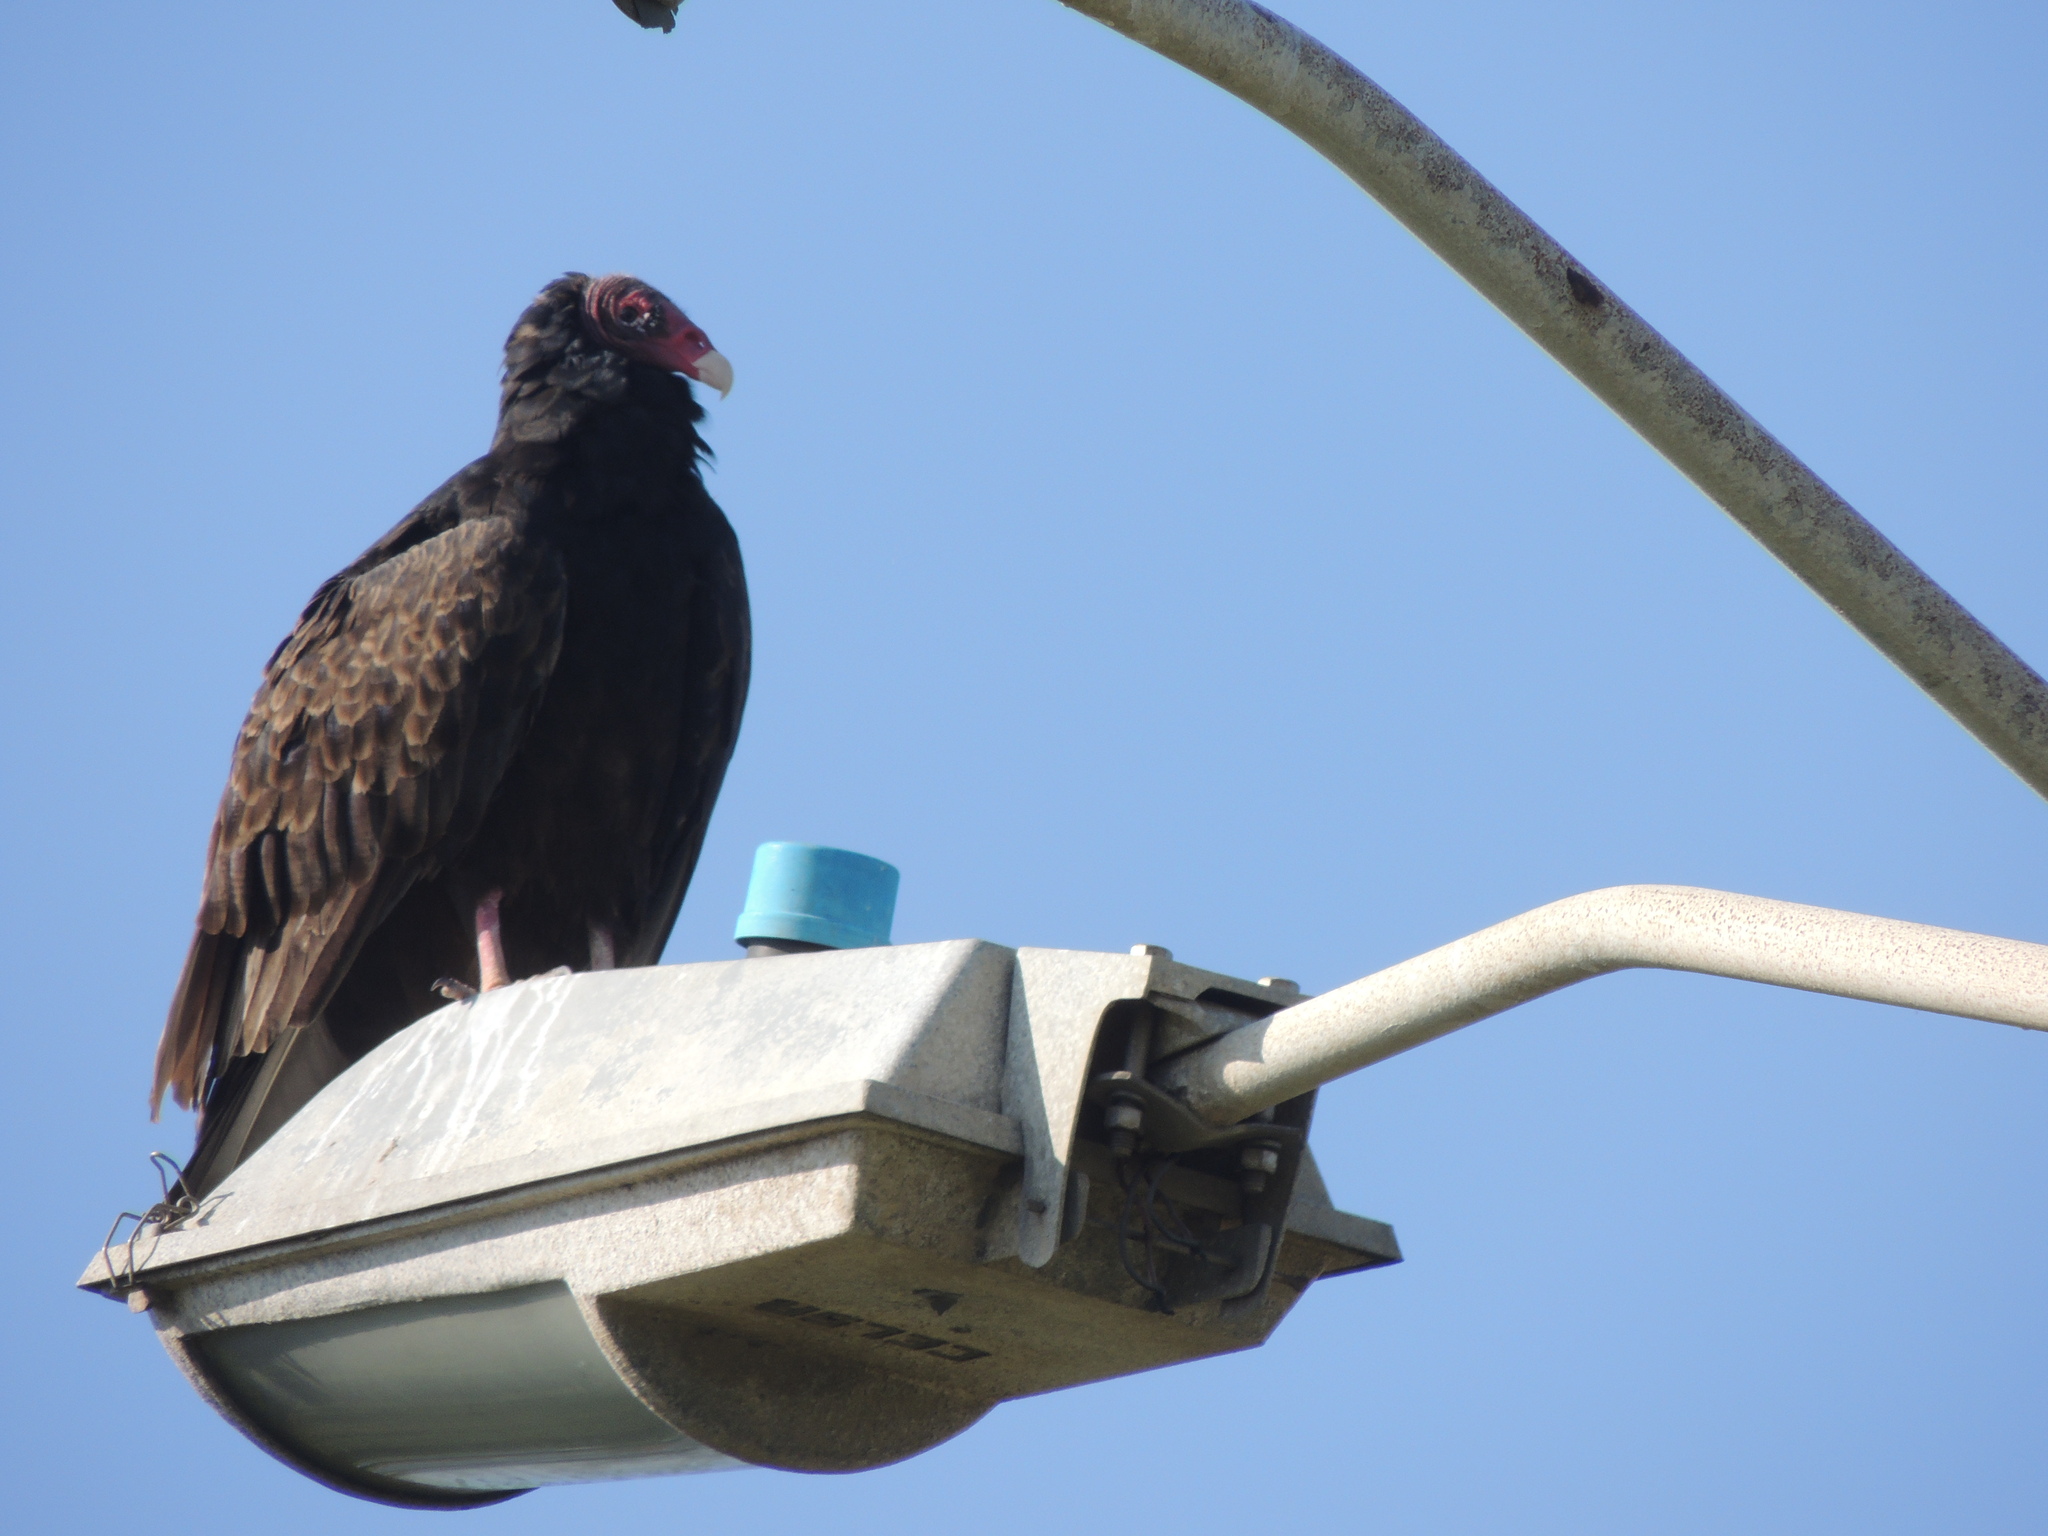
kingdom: Animalia
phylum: Chordata
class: Aves
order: Accipitriformes
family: Cathartidae
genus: Cathartes
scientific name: Cathartes aura
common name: Turkey vulture
